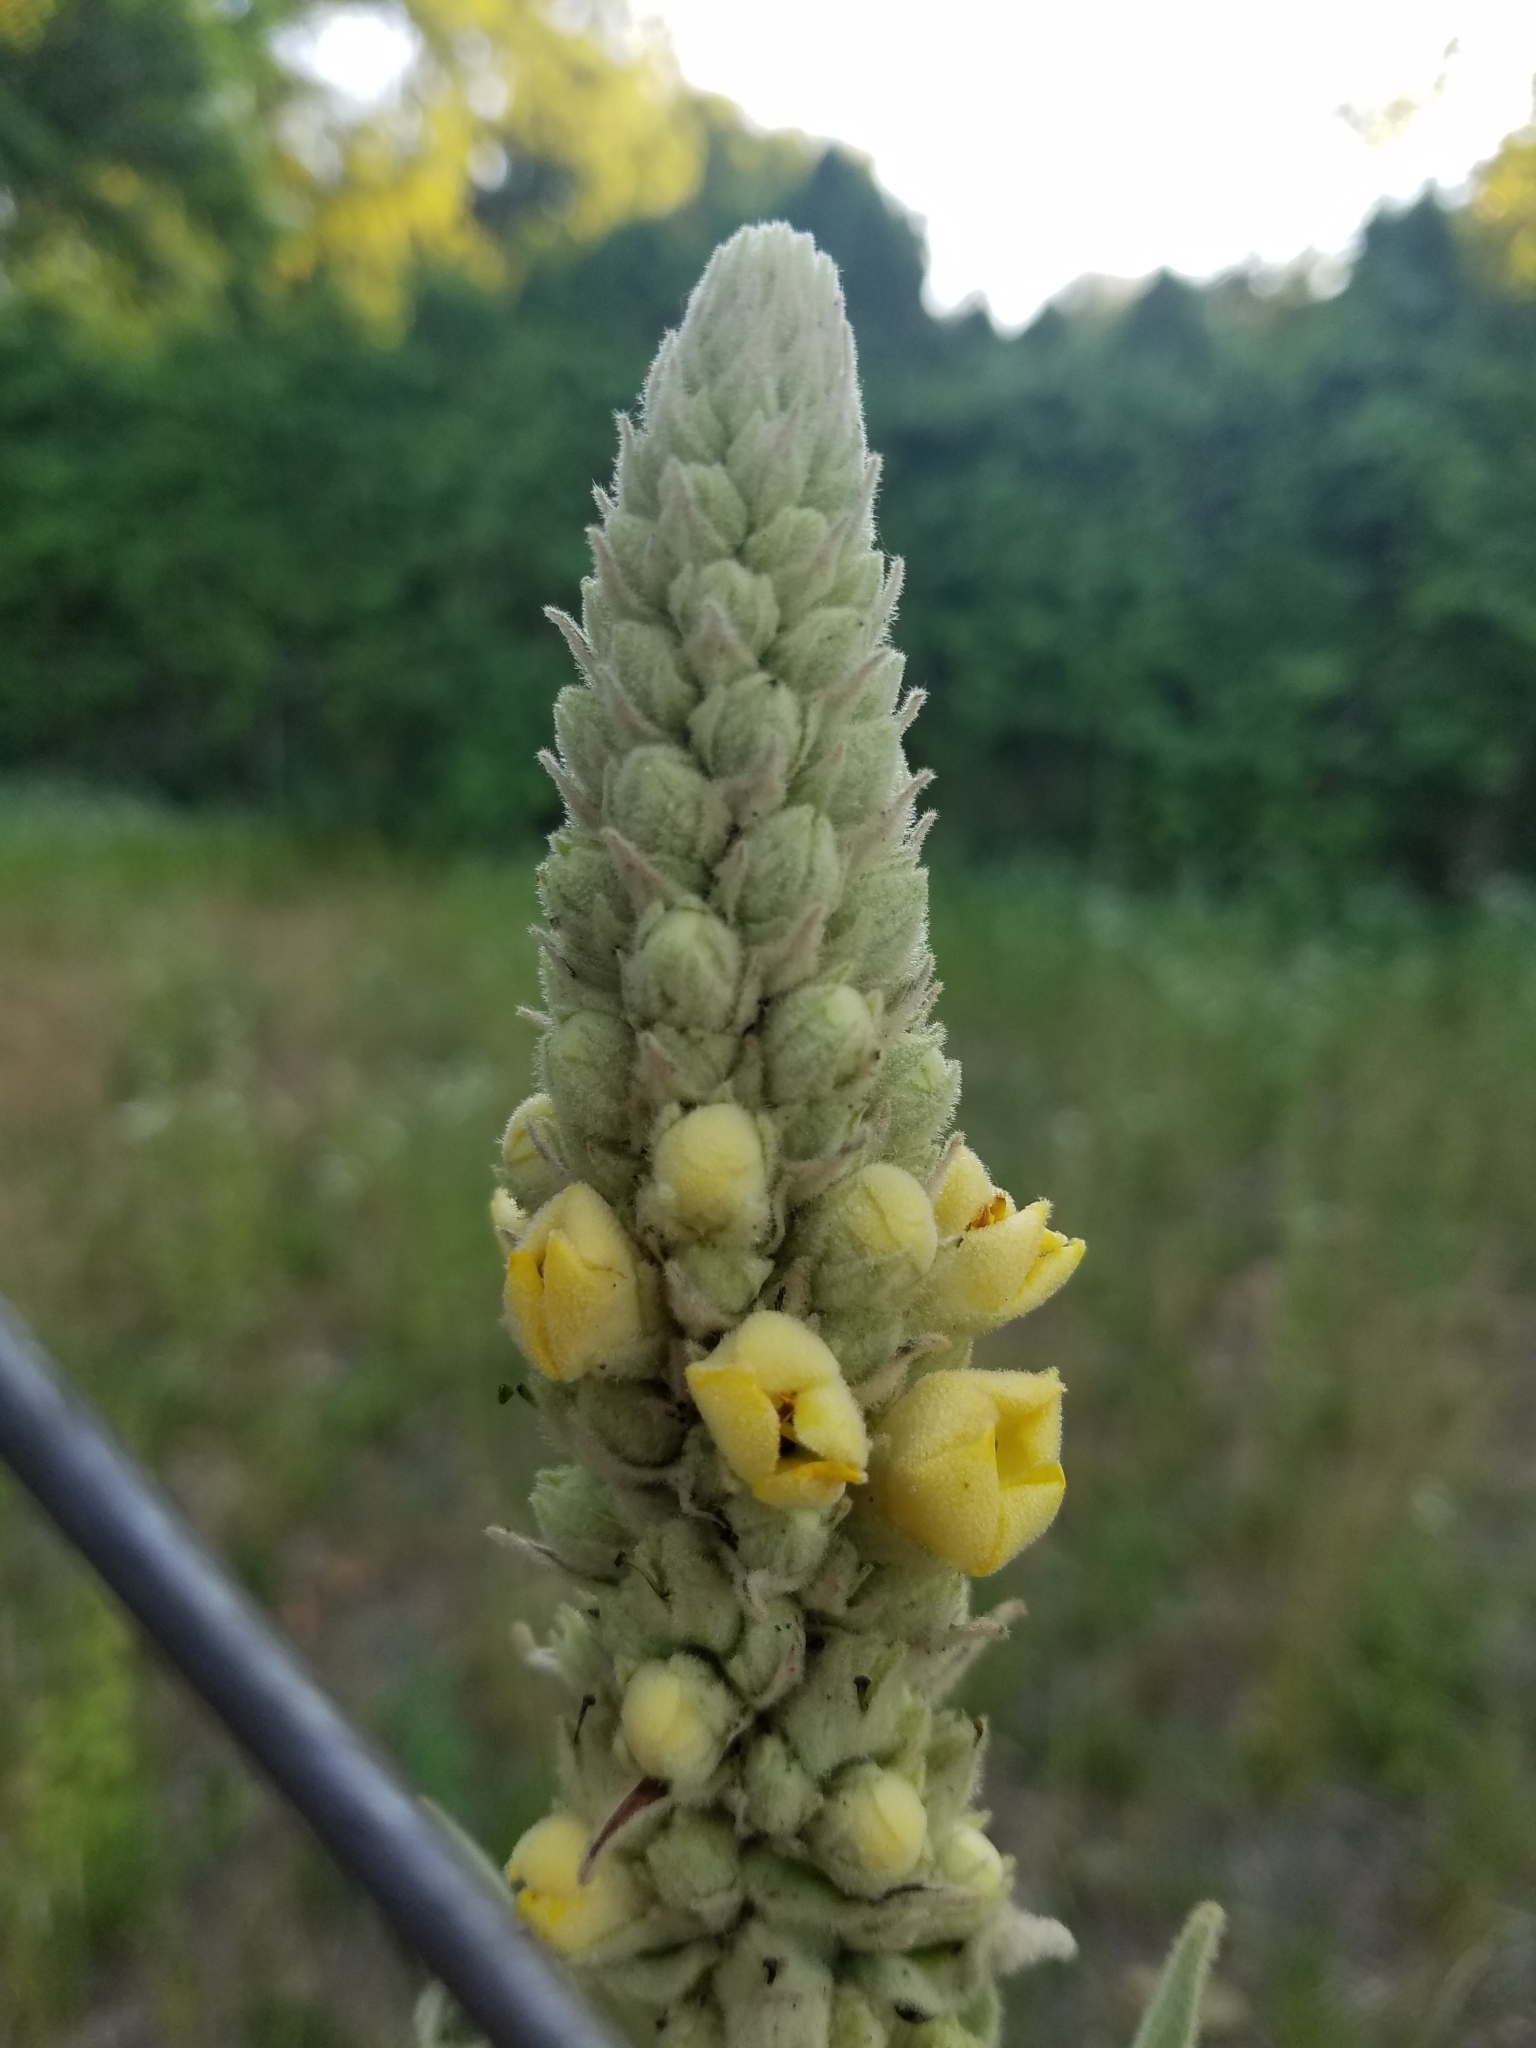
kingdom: Plantae
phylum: Tracheophyta
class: Magnoliopsida
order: Lamiales
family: Scrophulariaceae
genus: Verbascum
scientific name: Verbascum thapsus
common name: Common mullein
